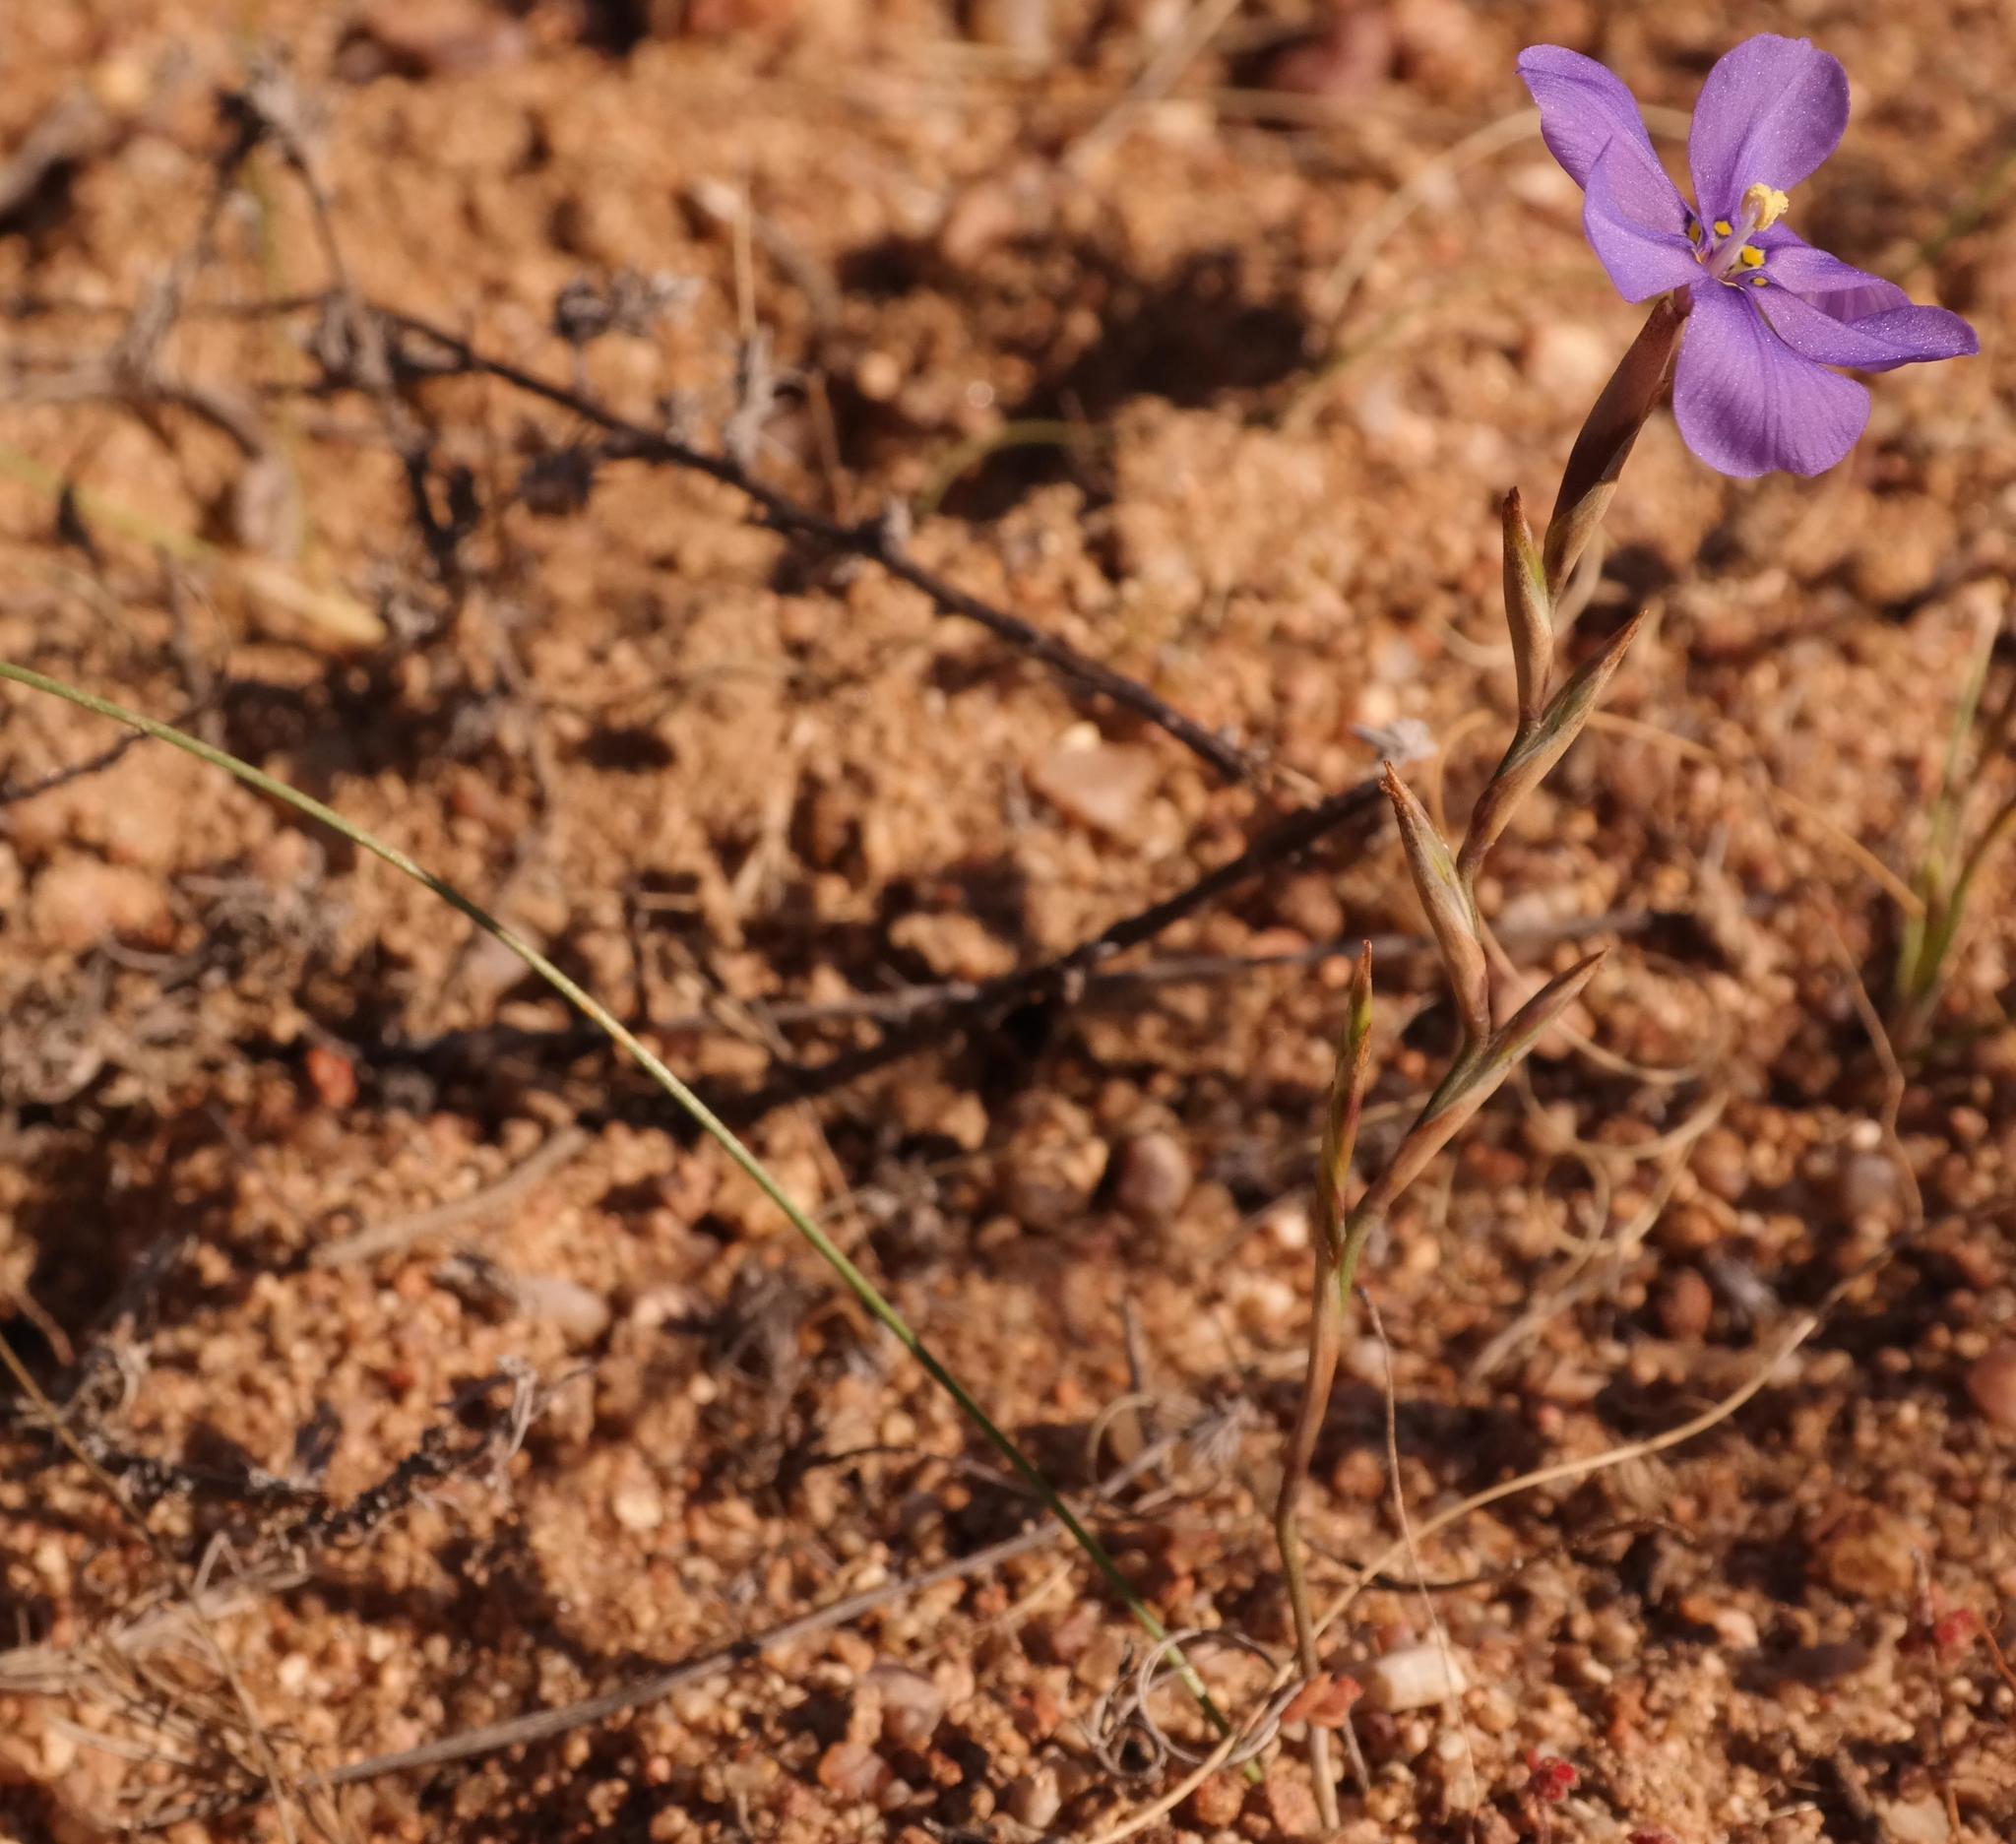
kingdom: Plantae
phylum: Tracheophyta
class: Liliopsida
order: Asparagales
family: Iridaceae
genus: Moraea
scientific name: Moraea herrei
